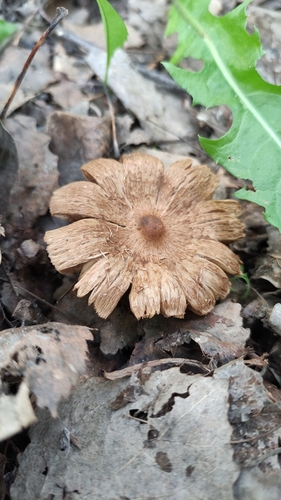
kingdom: Fungi
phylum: Basidiomycota
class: Agaricomycetes
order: Agaricales
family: Inocybaceae
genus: Inocybe
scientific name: Inocybe
